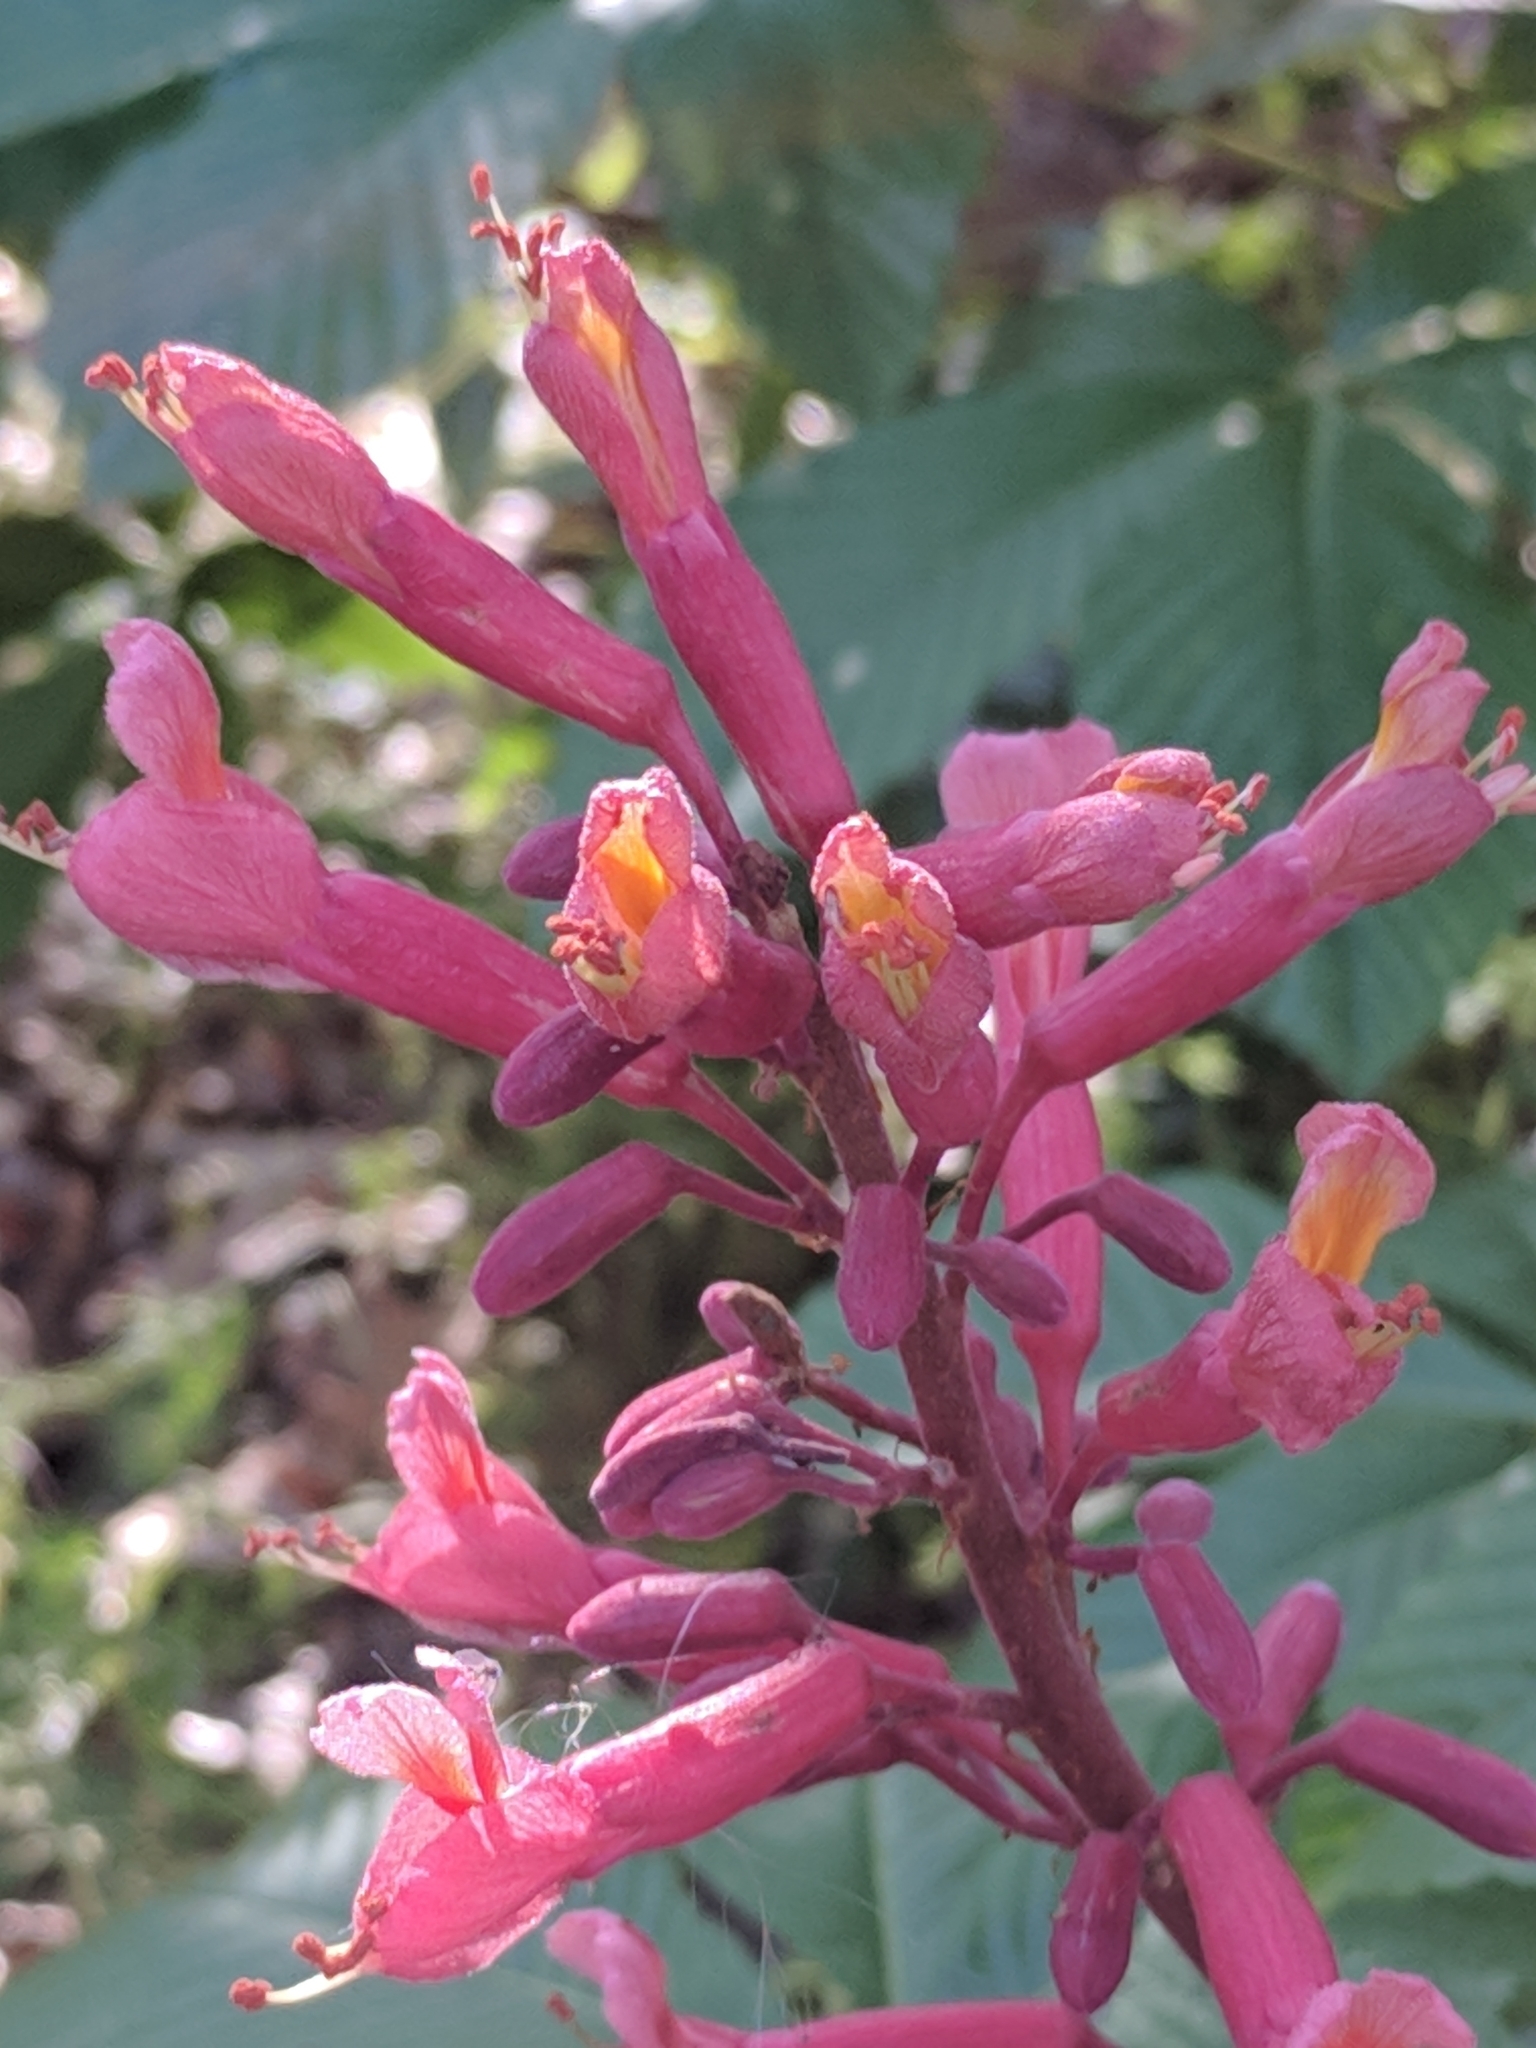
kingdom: Plantae
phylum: Tracheophyta
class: Magnoliopsida
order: Sapindales
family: Sapindaceae
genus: Aesculus
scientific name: Aesculus pavia
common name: Red buckeye
